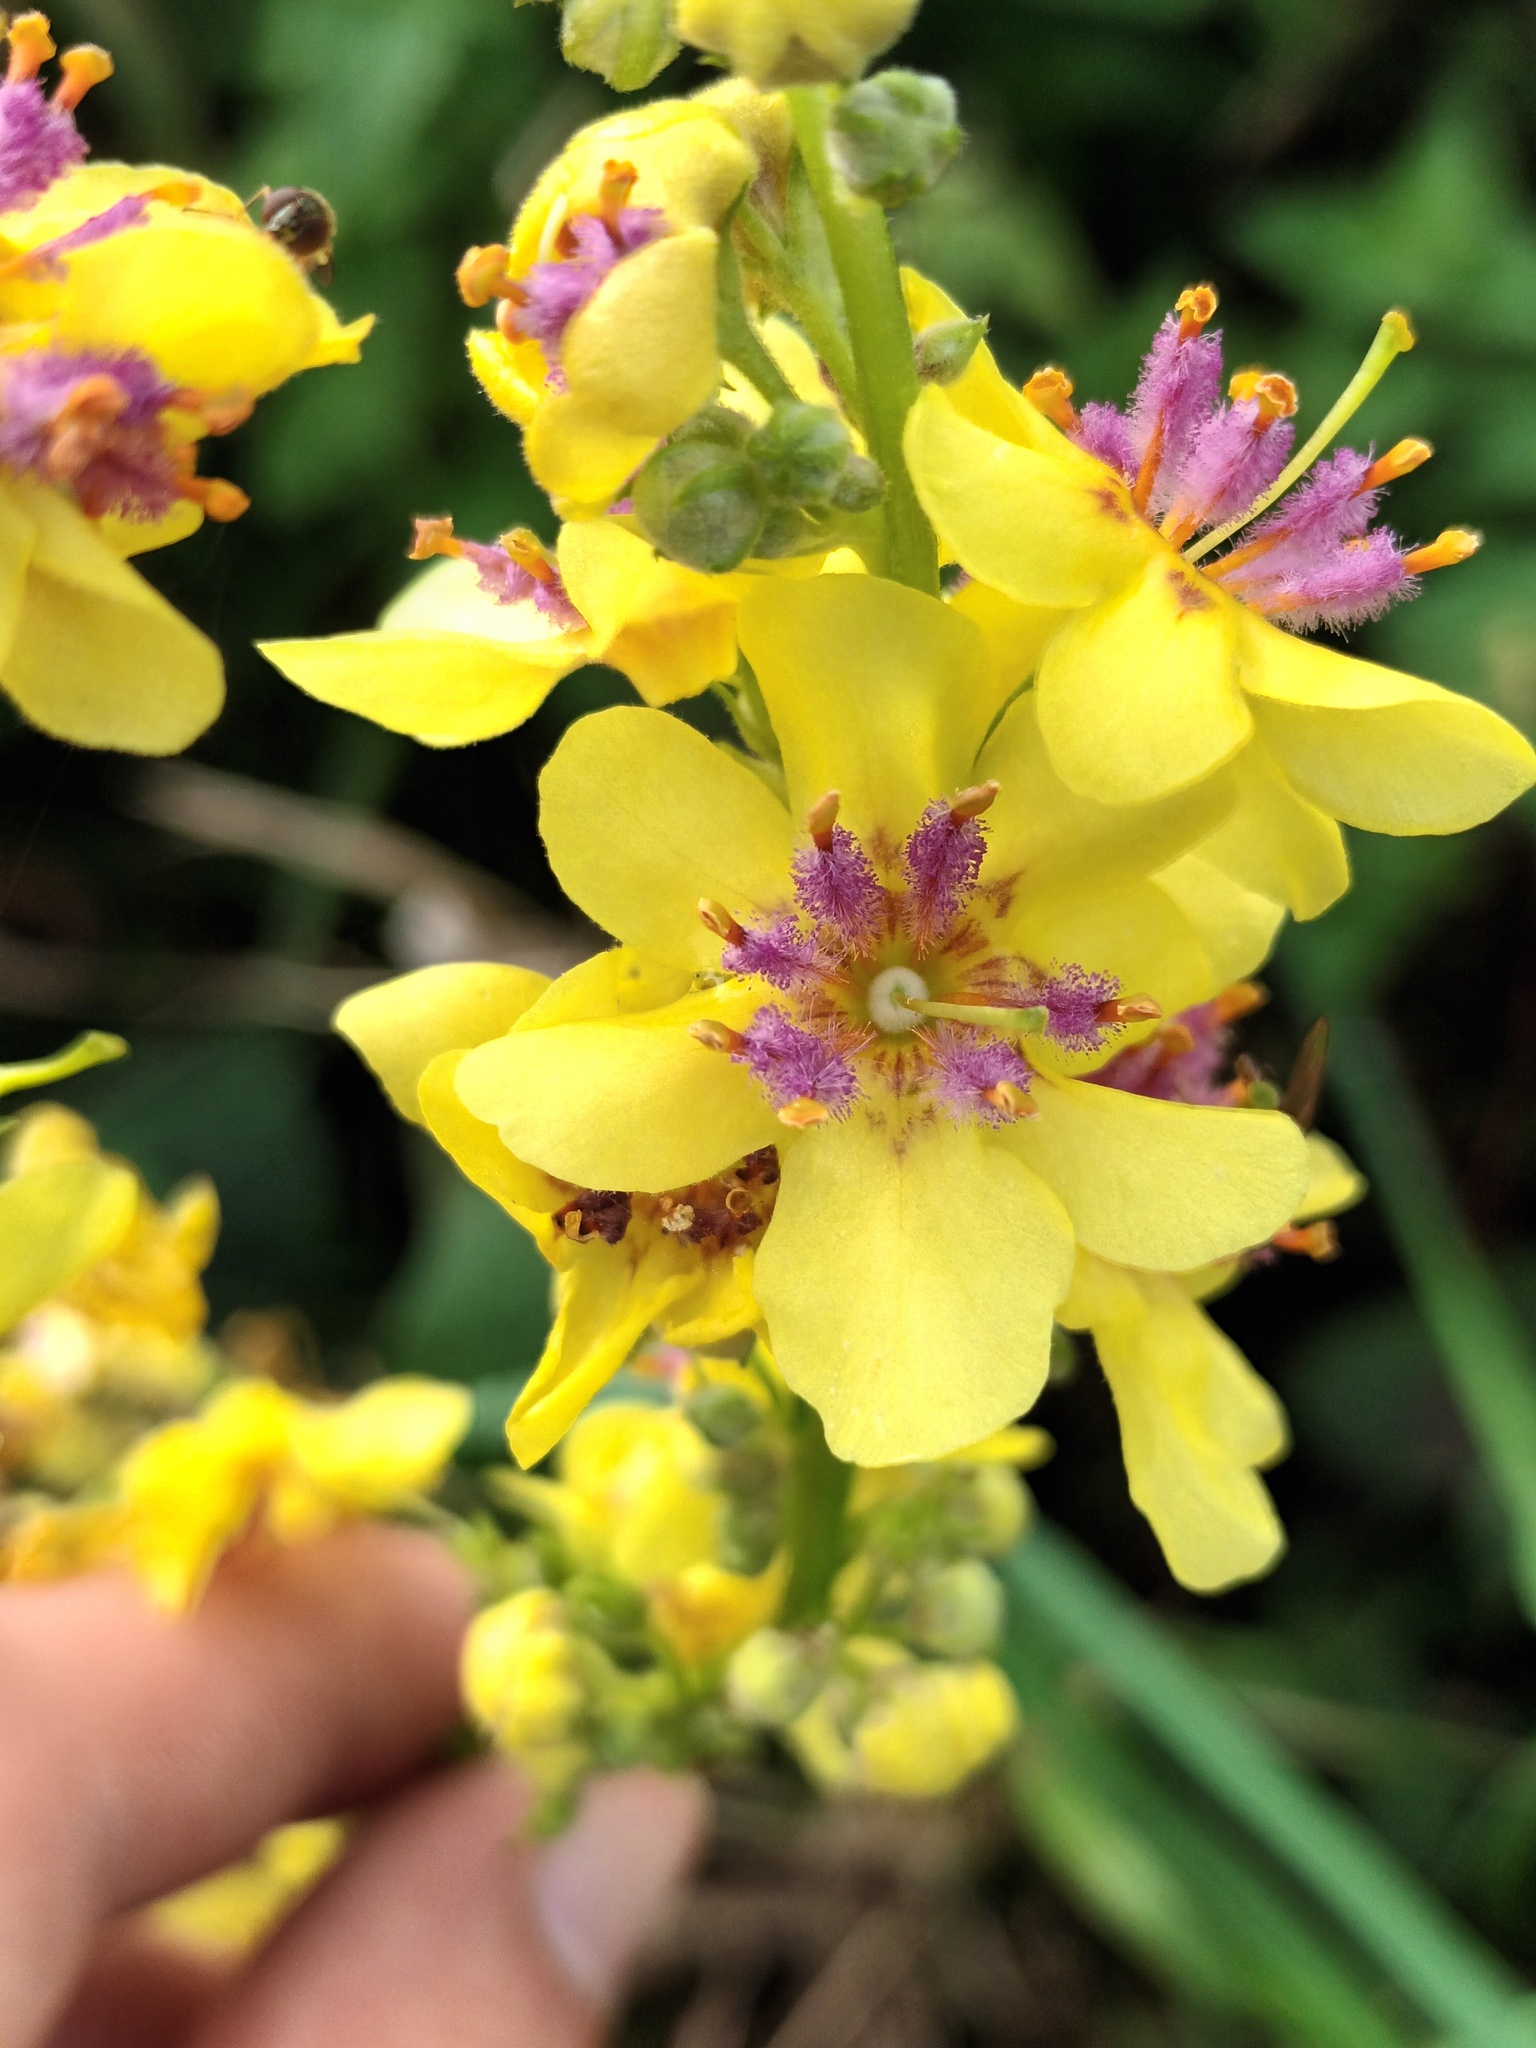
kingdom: Plantae
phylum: Tracheophyta
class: Magnoliopsida
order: Lamiales
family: Scrophulariaceae
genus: Verbascum
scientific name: Verbascum nigrum
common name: Dark mullein
